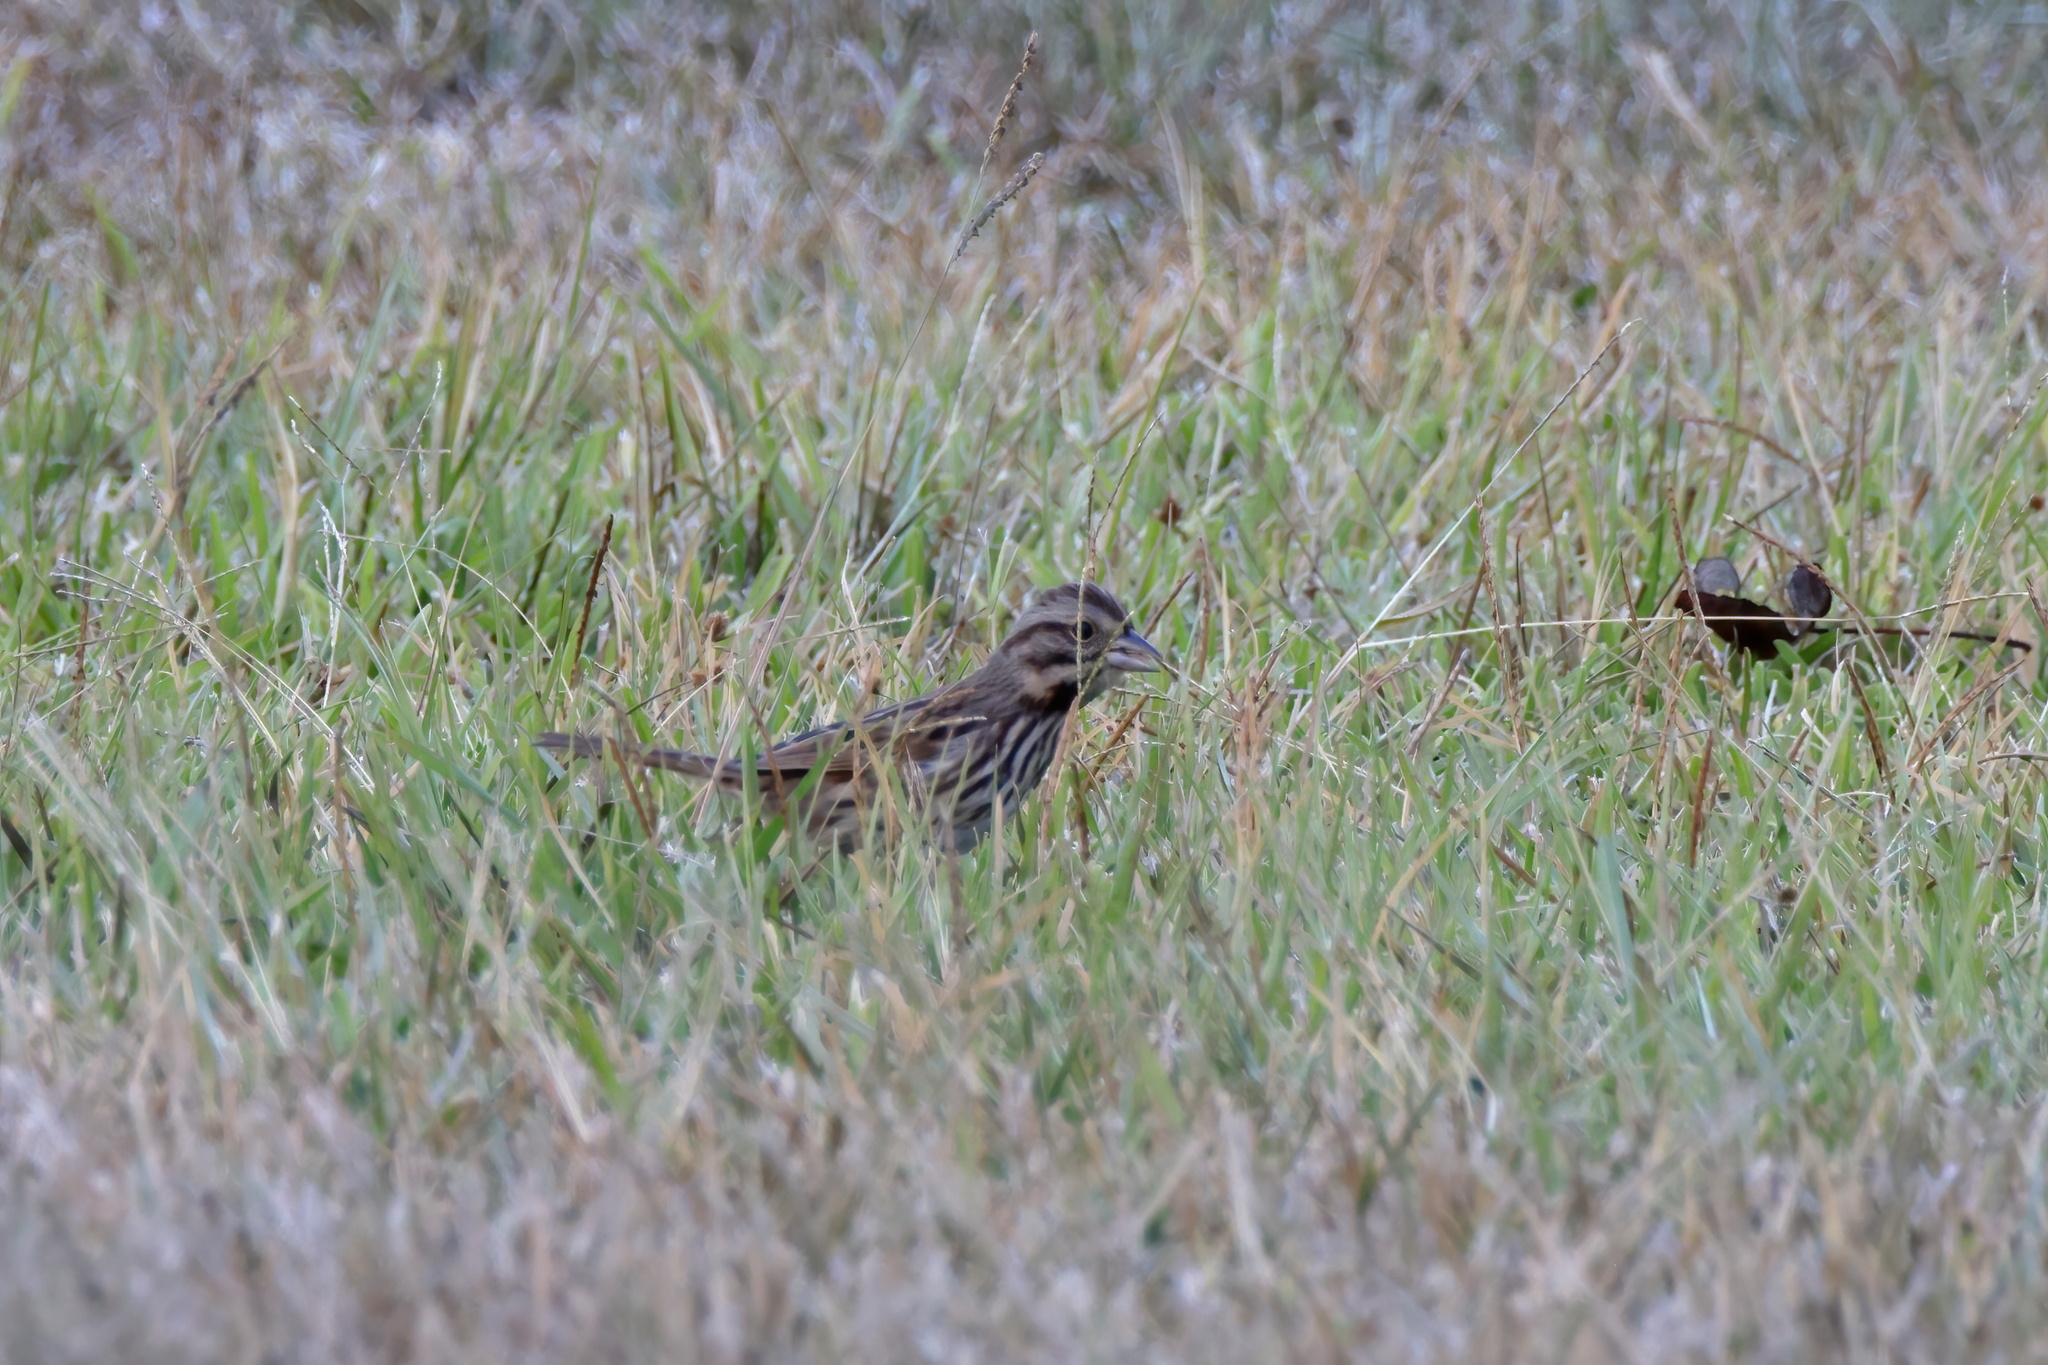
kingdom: Animalia
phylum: Chordata
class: Aves
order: Passeriformes
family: Passerellidae
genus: Melospiza
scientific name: Melospiza melodia
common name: Song sparrow
